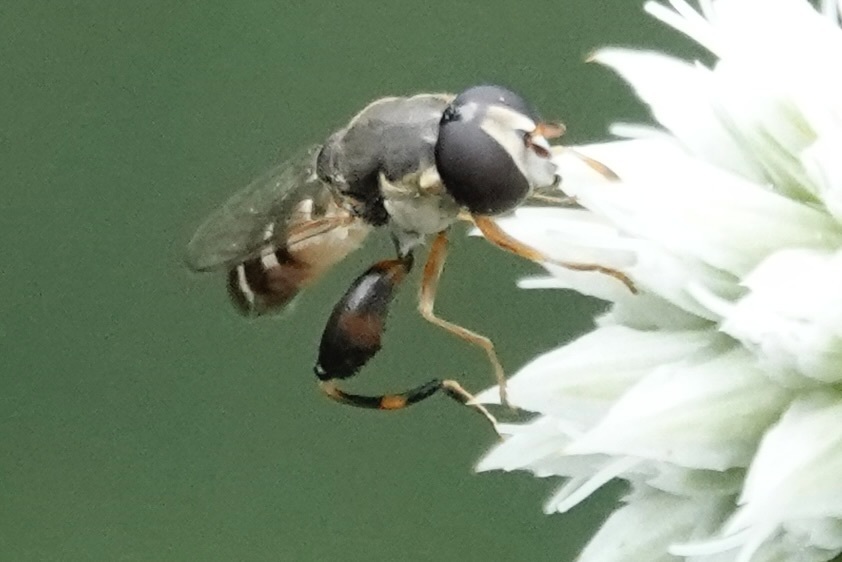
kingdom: Animalia
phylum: Arthropoda
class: Insecta
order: Diptera
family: Syrphidae
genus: Syritta
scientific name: Syritta pipiens
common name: Hover fly
